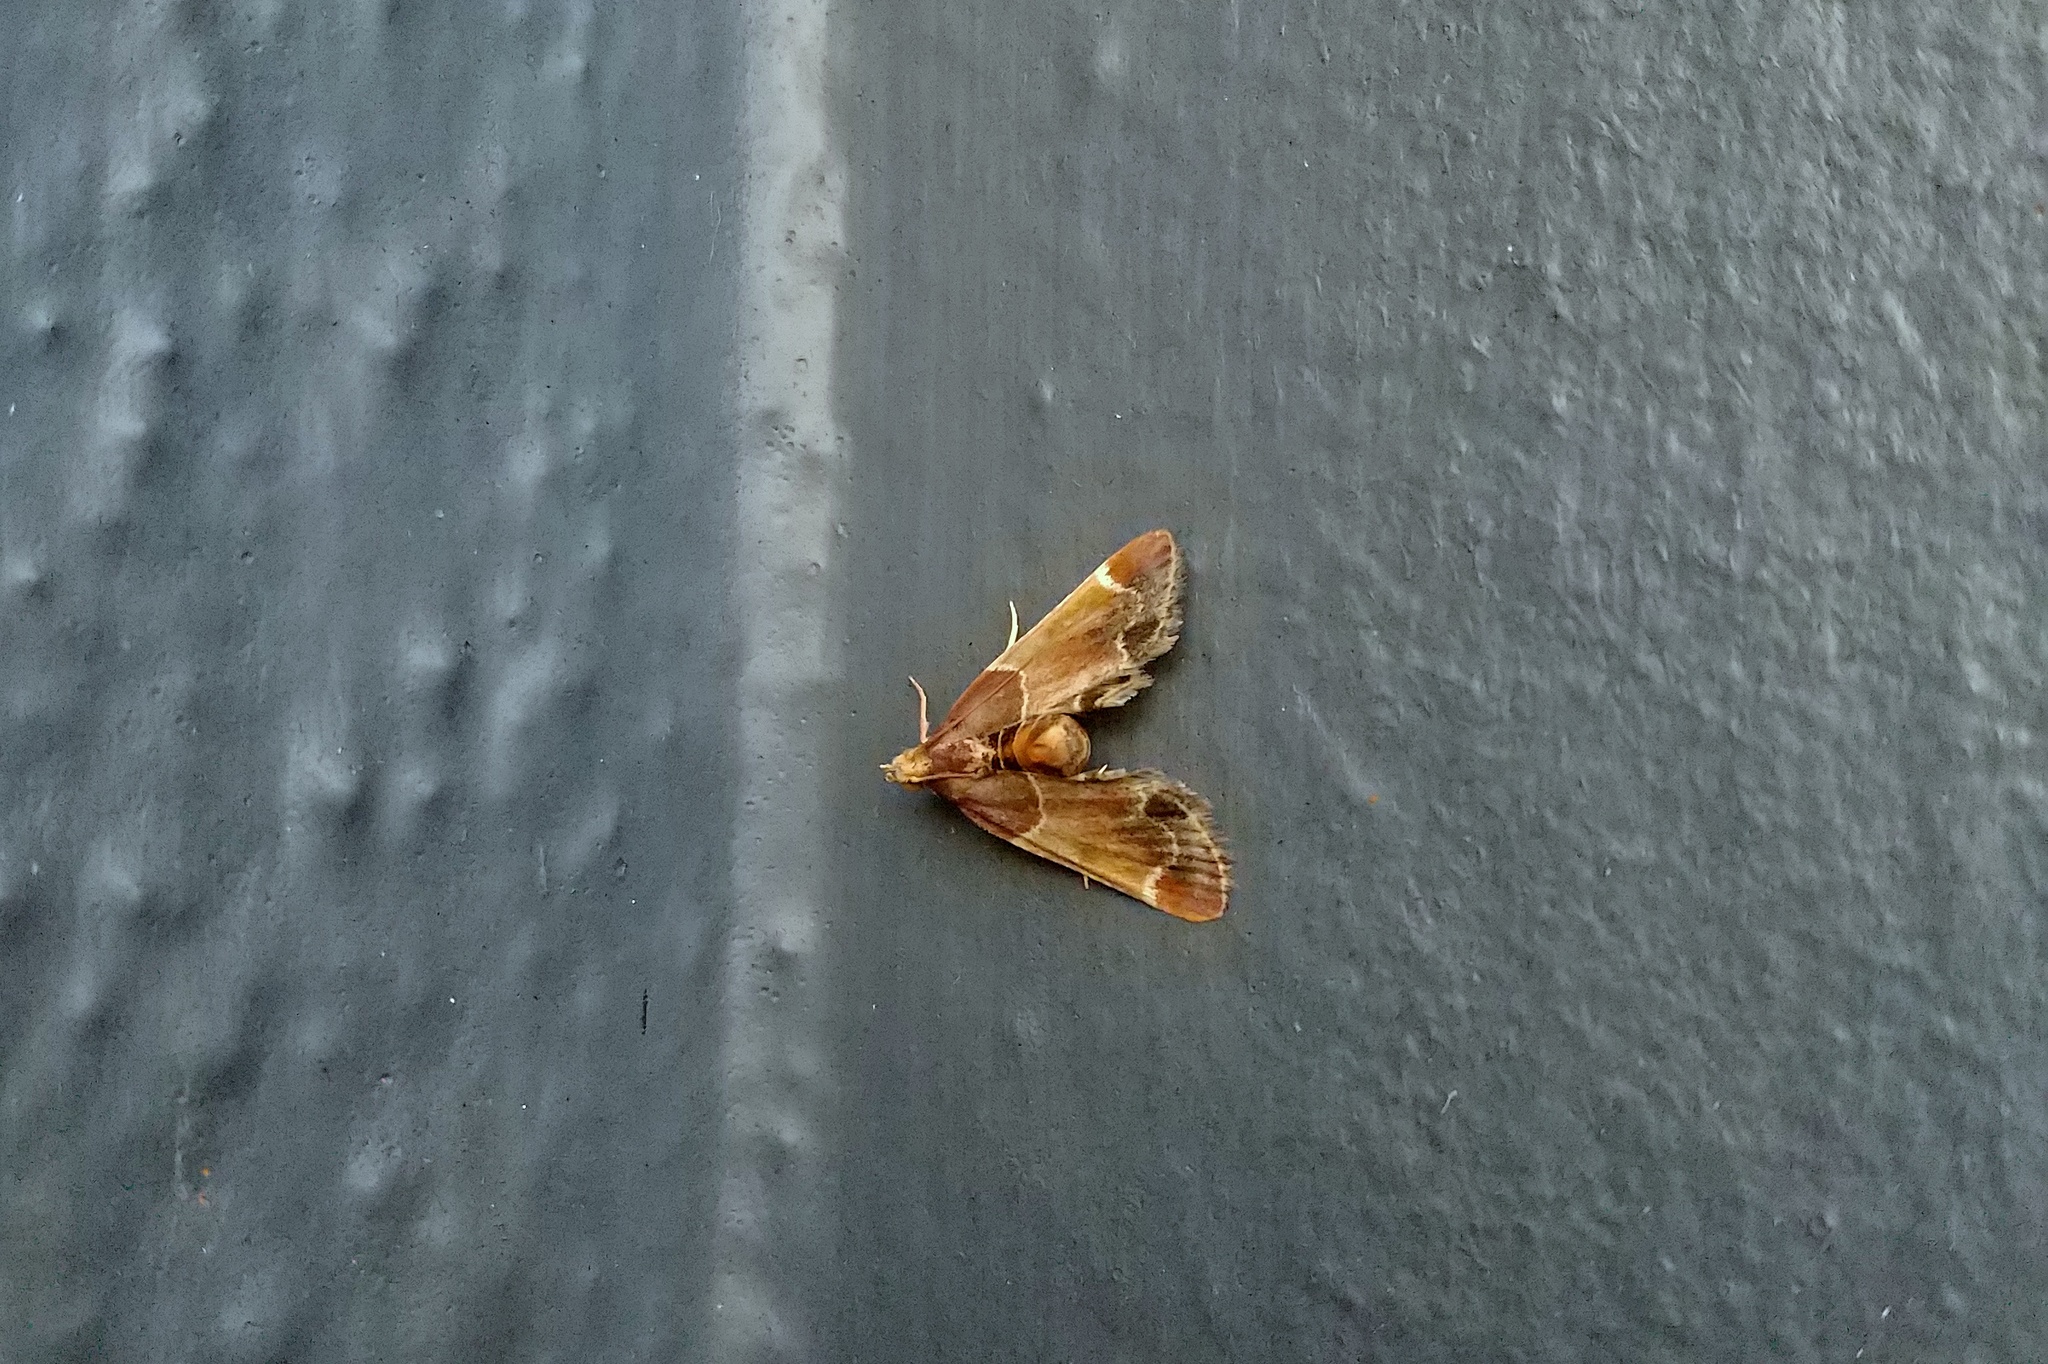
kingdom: Animalia
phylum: Arthropoda
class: Insecta
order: Lepidoptera
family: Pyralidae
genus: Pyralis
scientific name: Pyralis farinalis
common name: Meal moth
